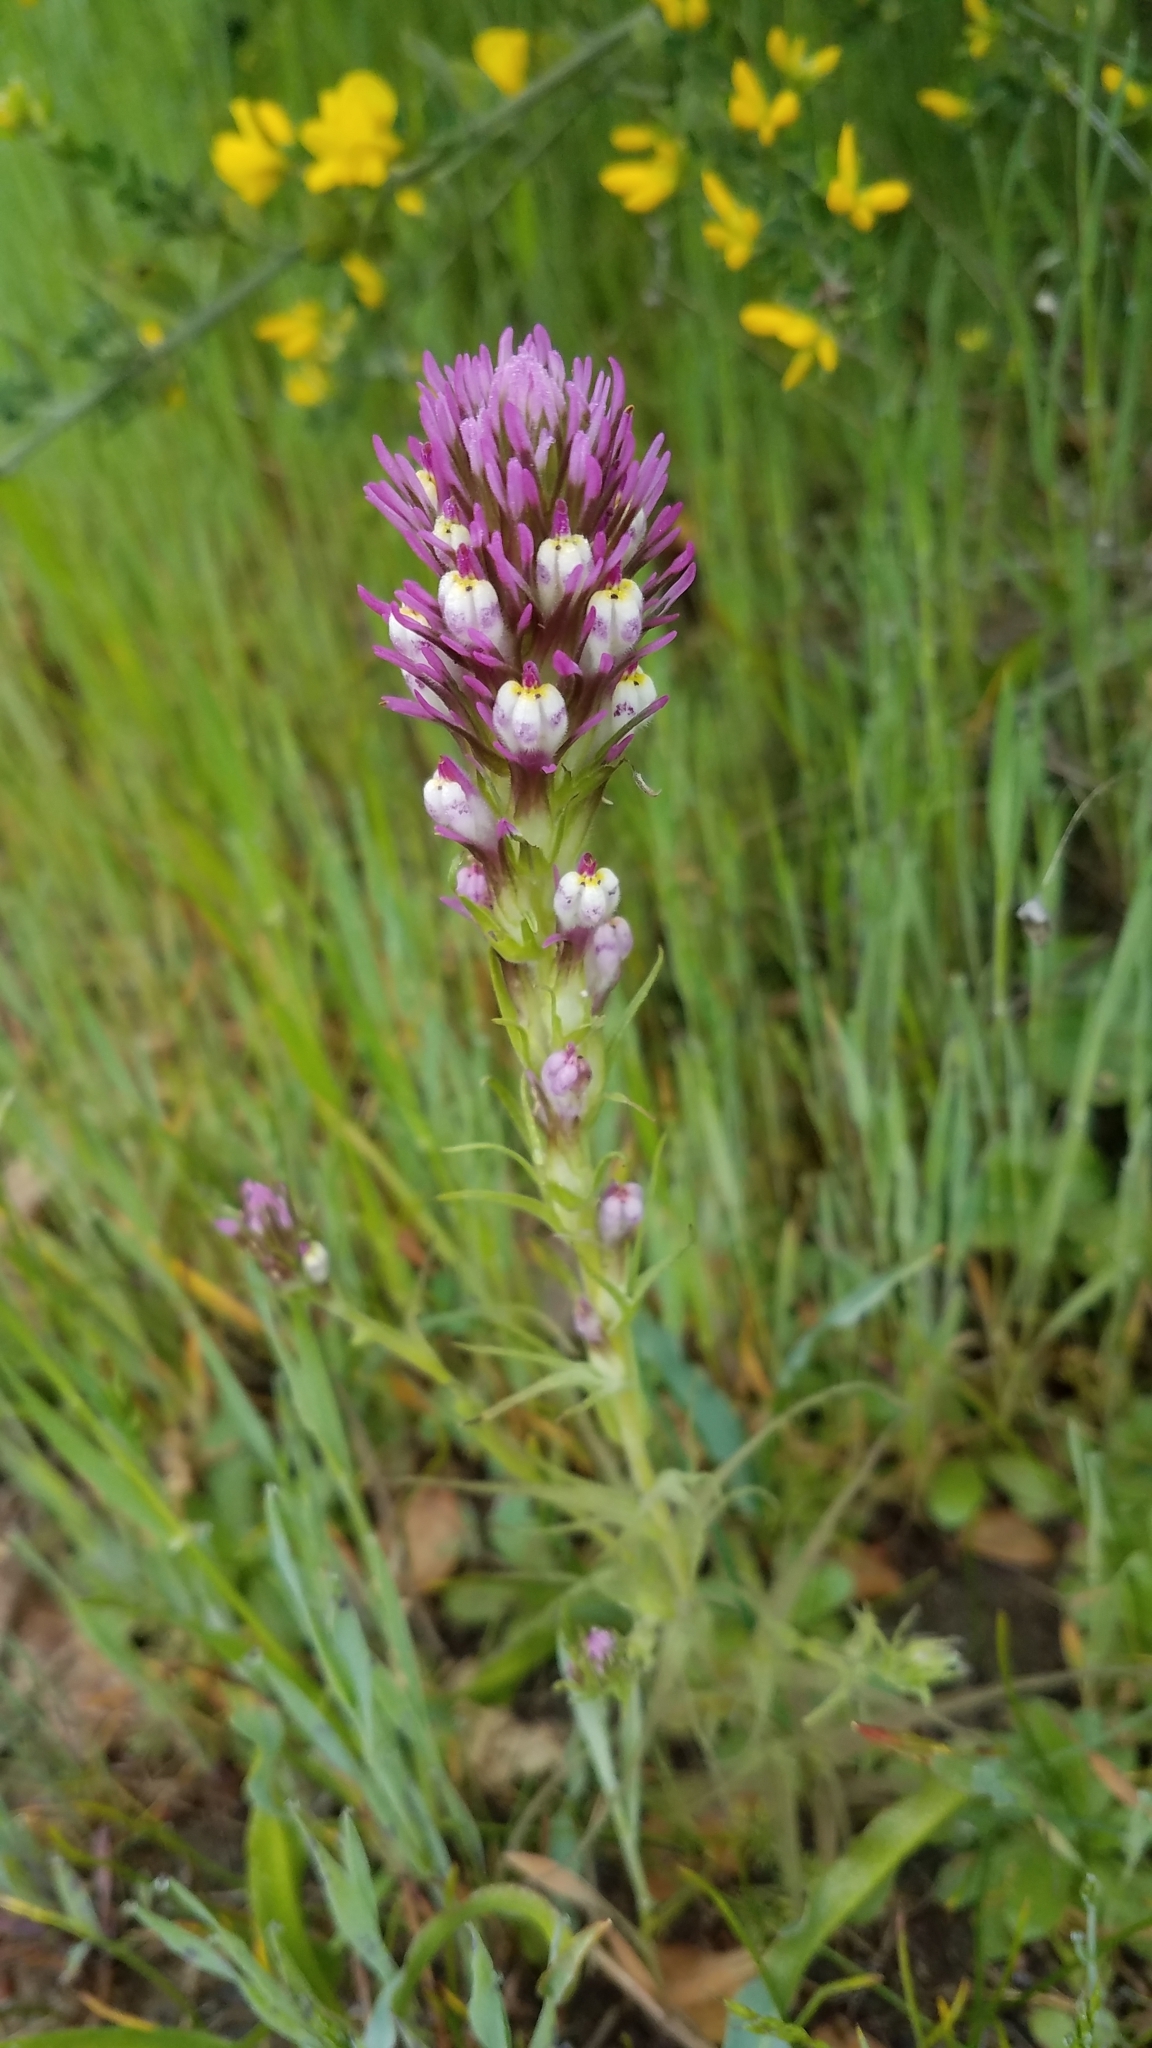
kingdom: Plantae
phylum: Tracheophyta
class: Magnoliopsida
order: Lamiales
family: Orobanchaceae
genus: Castilleja
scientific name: Castilleja densiflora
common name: Dense-flower indian paintbrush
